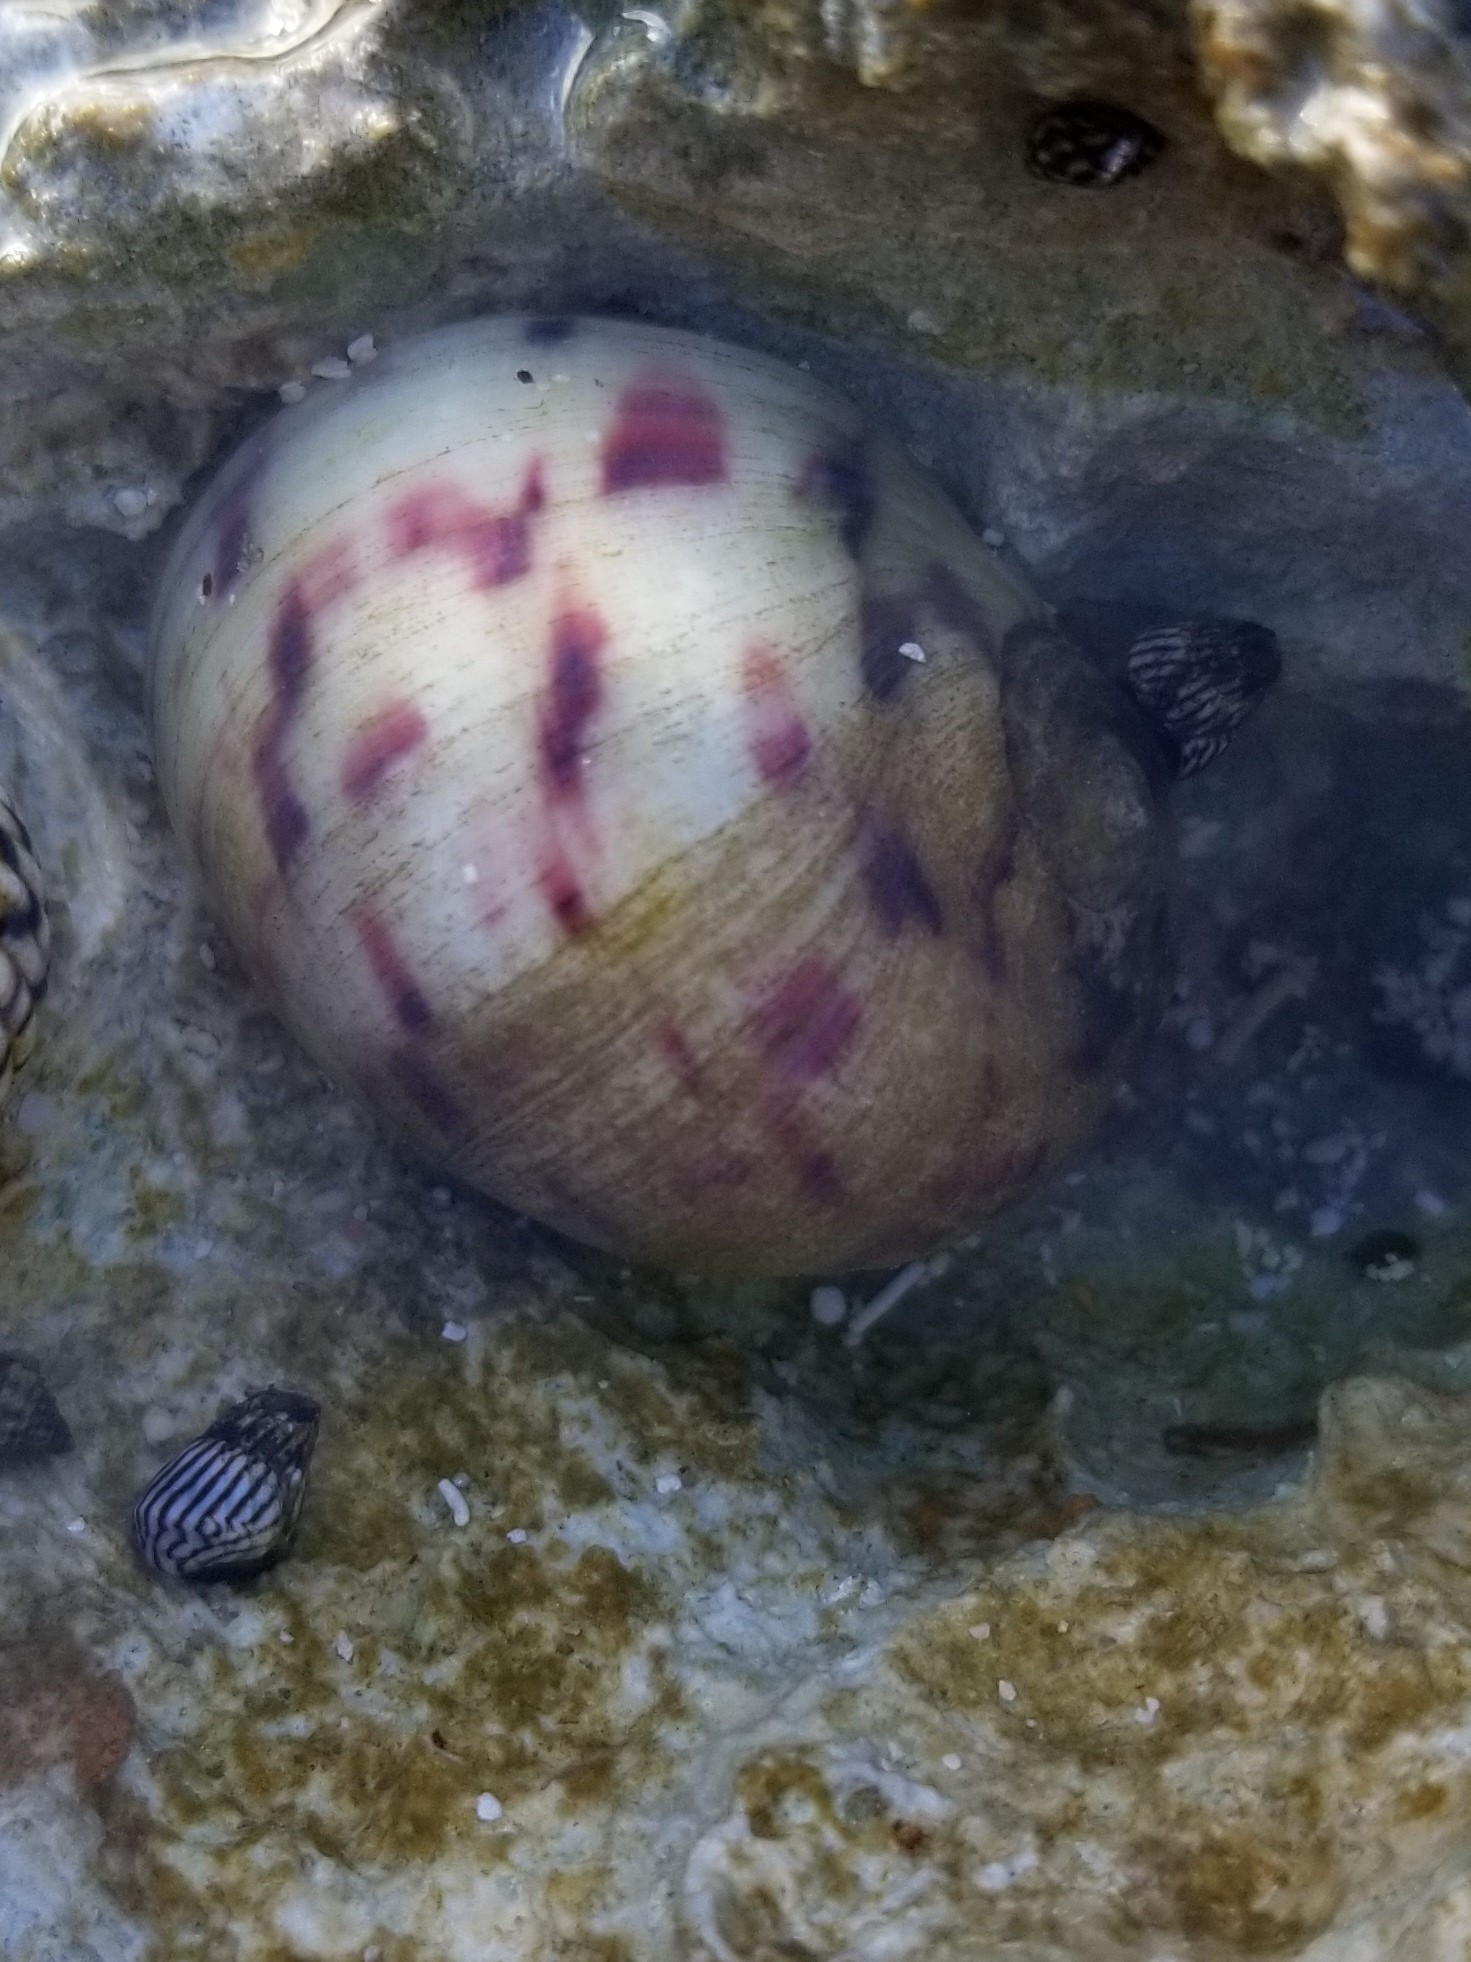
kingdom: Animalia
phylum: Mollusca
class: Gastropoda
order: Cycloneritida
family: Neritidae
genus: Nerita
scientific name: Nerita peloronta
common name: Bleeding tooth
